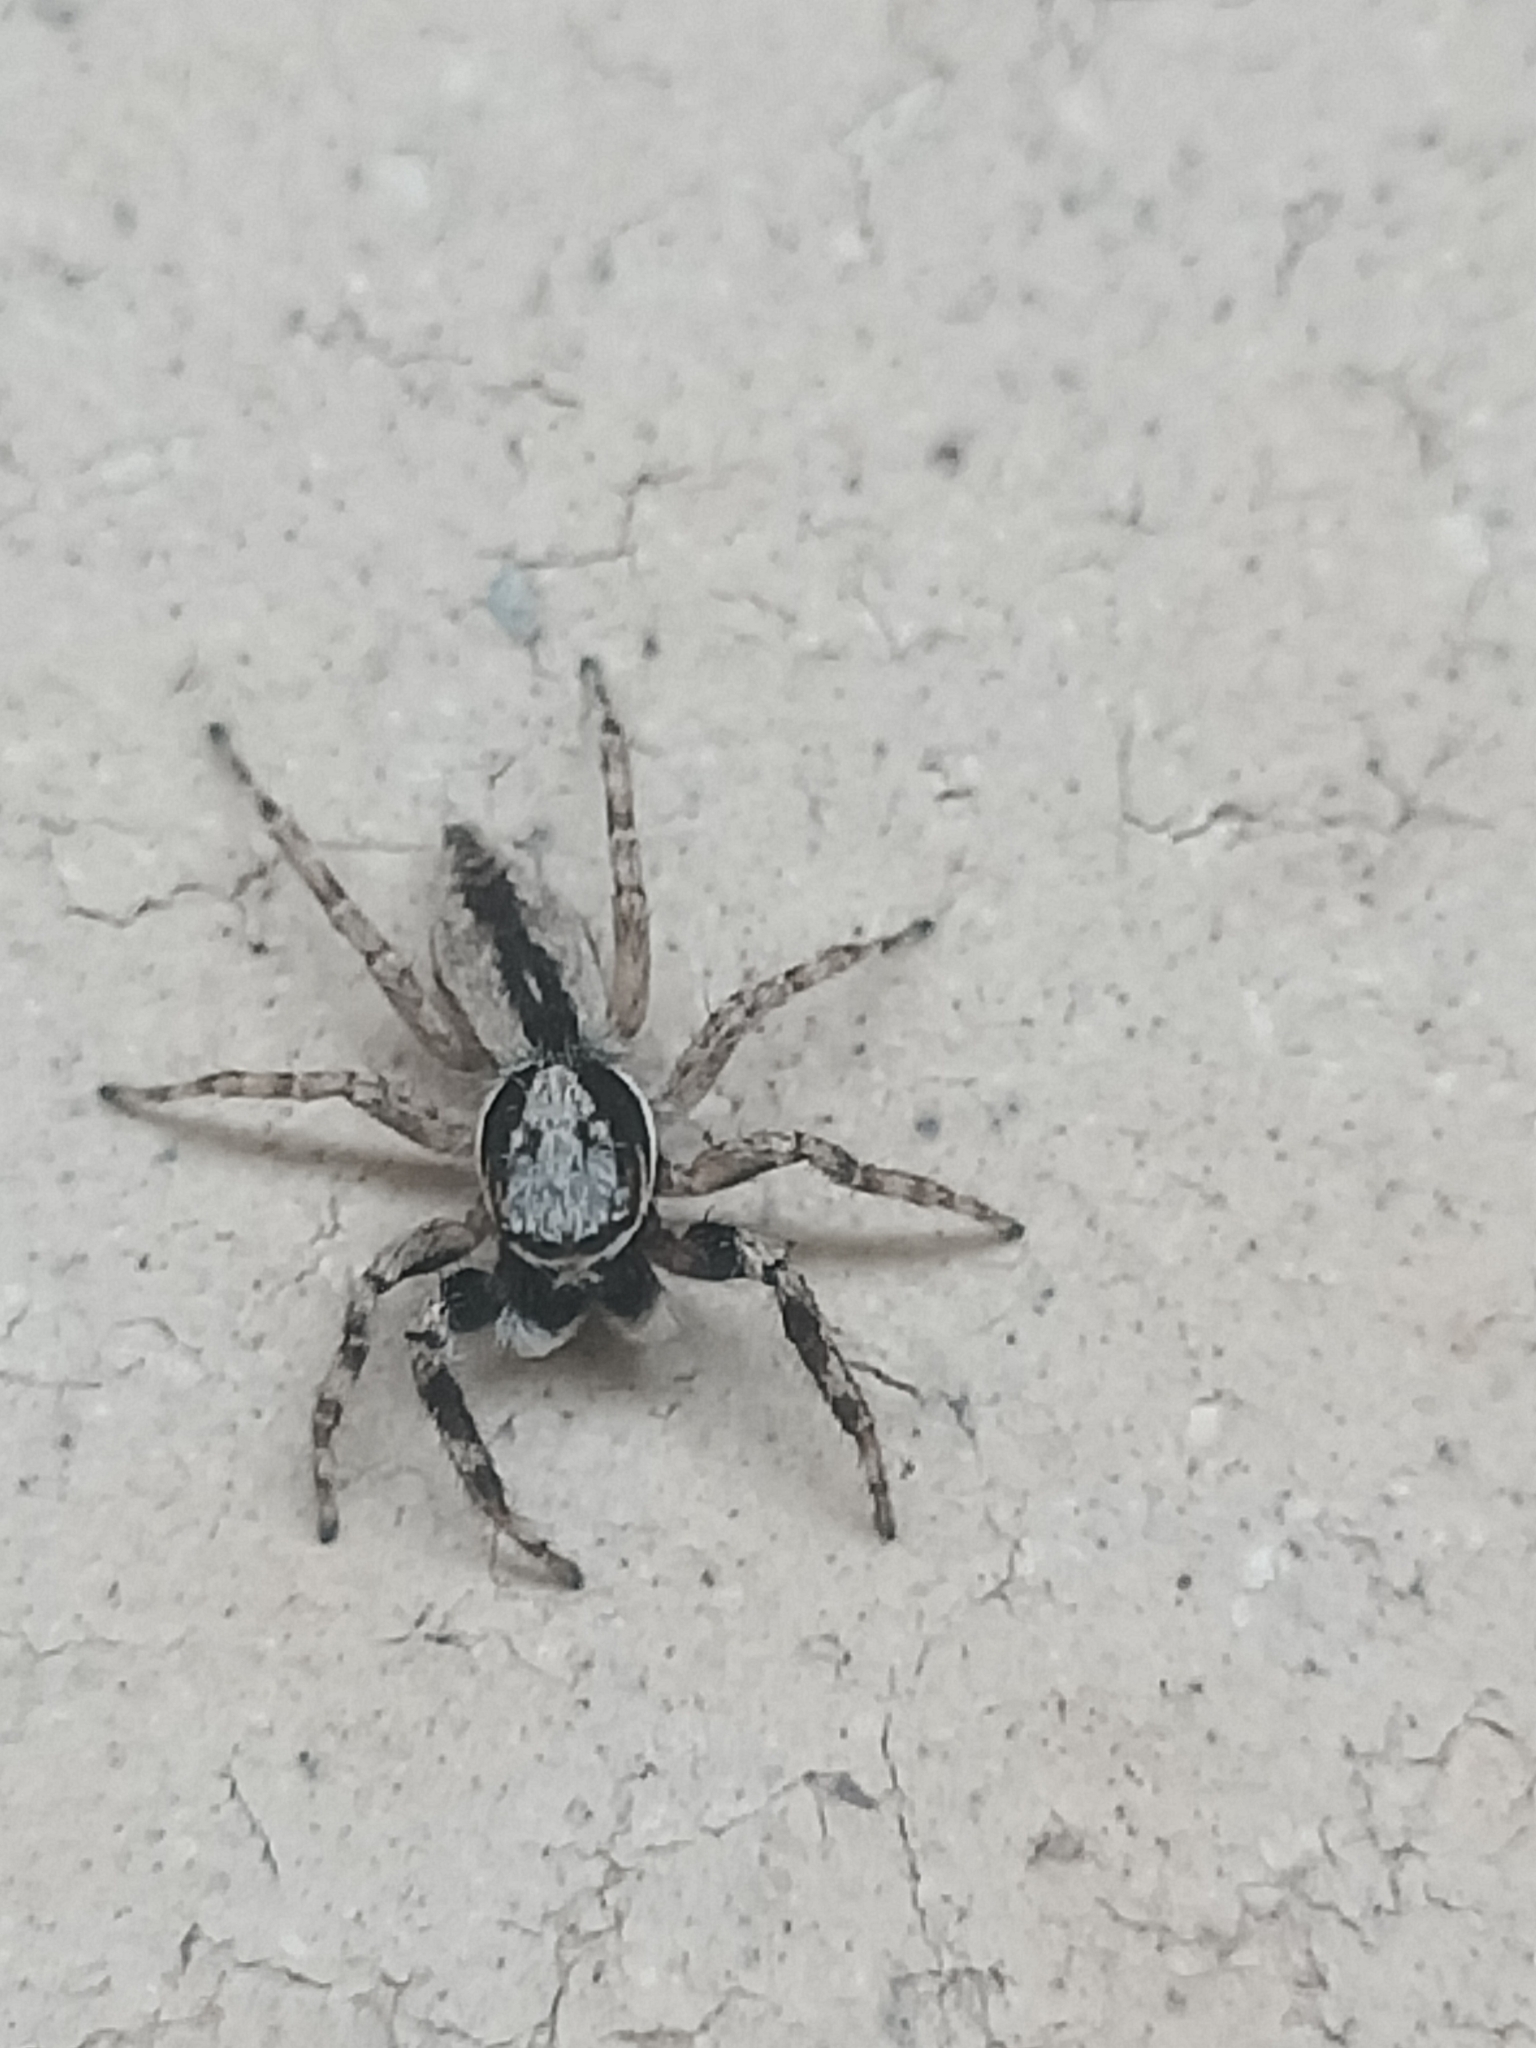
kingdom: Animalia
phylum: Arthropoda
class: Arachnida
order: Araneae
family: Salticidae
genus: Menemerus
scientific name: Menemerus bivittatus
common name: Gray wall jumper
